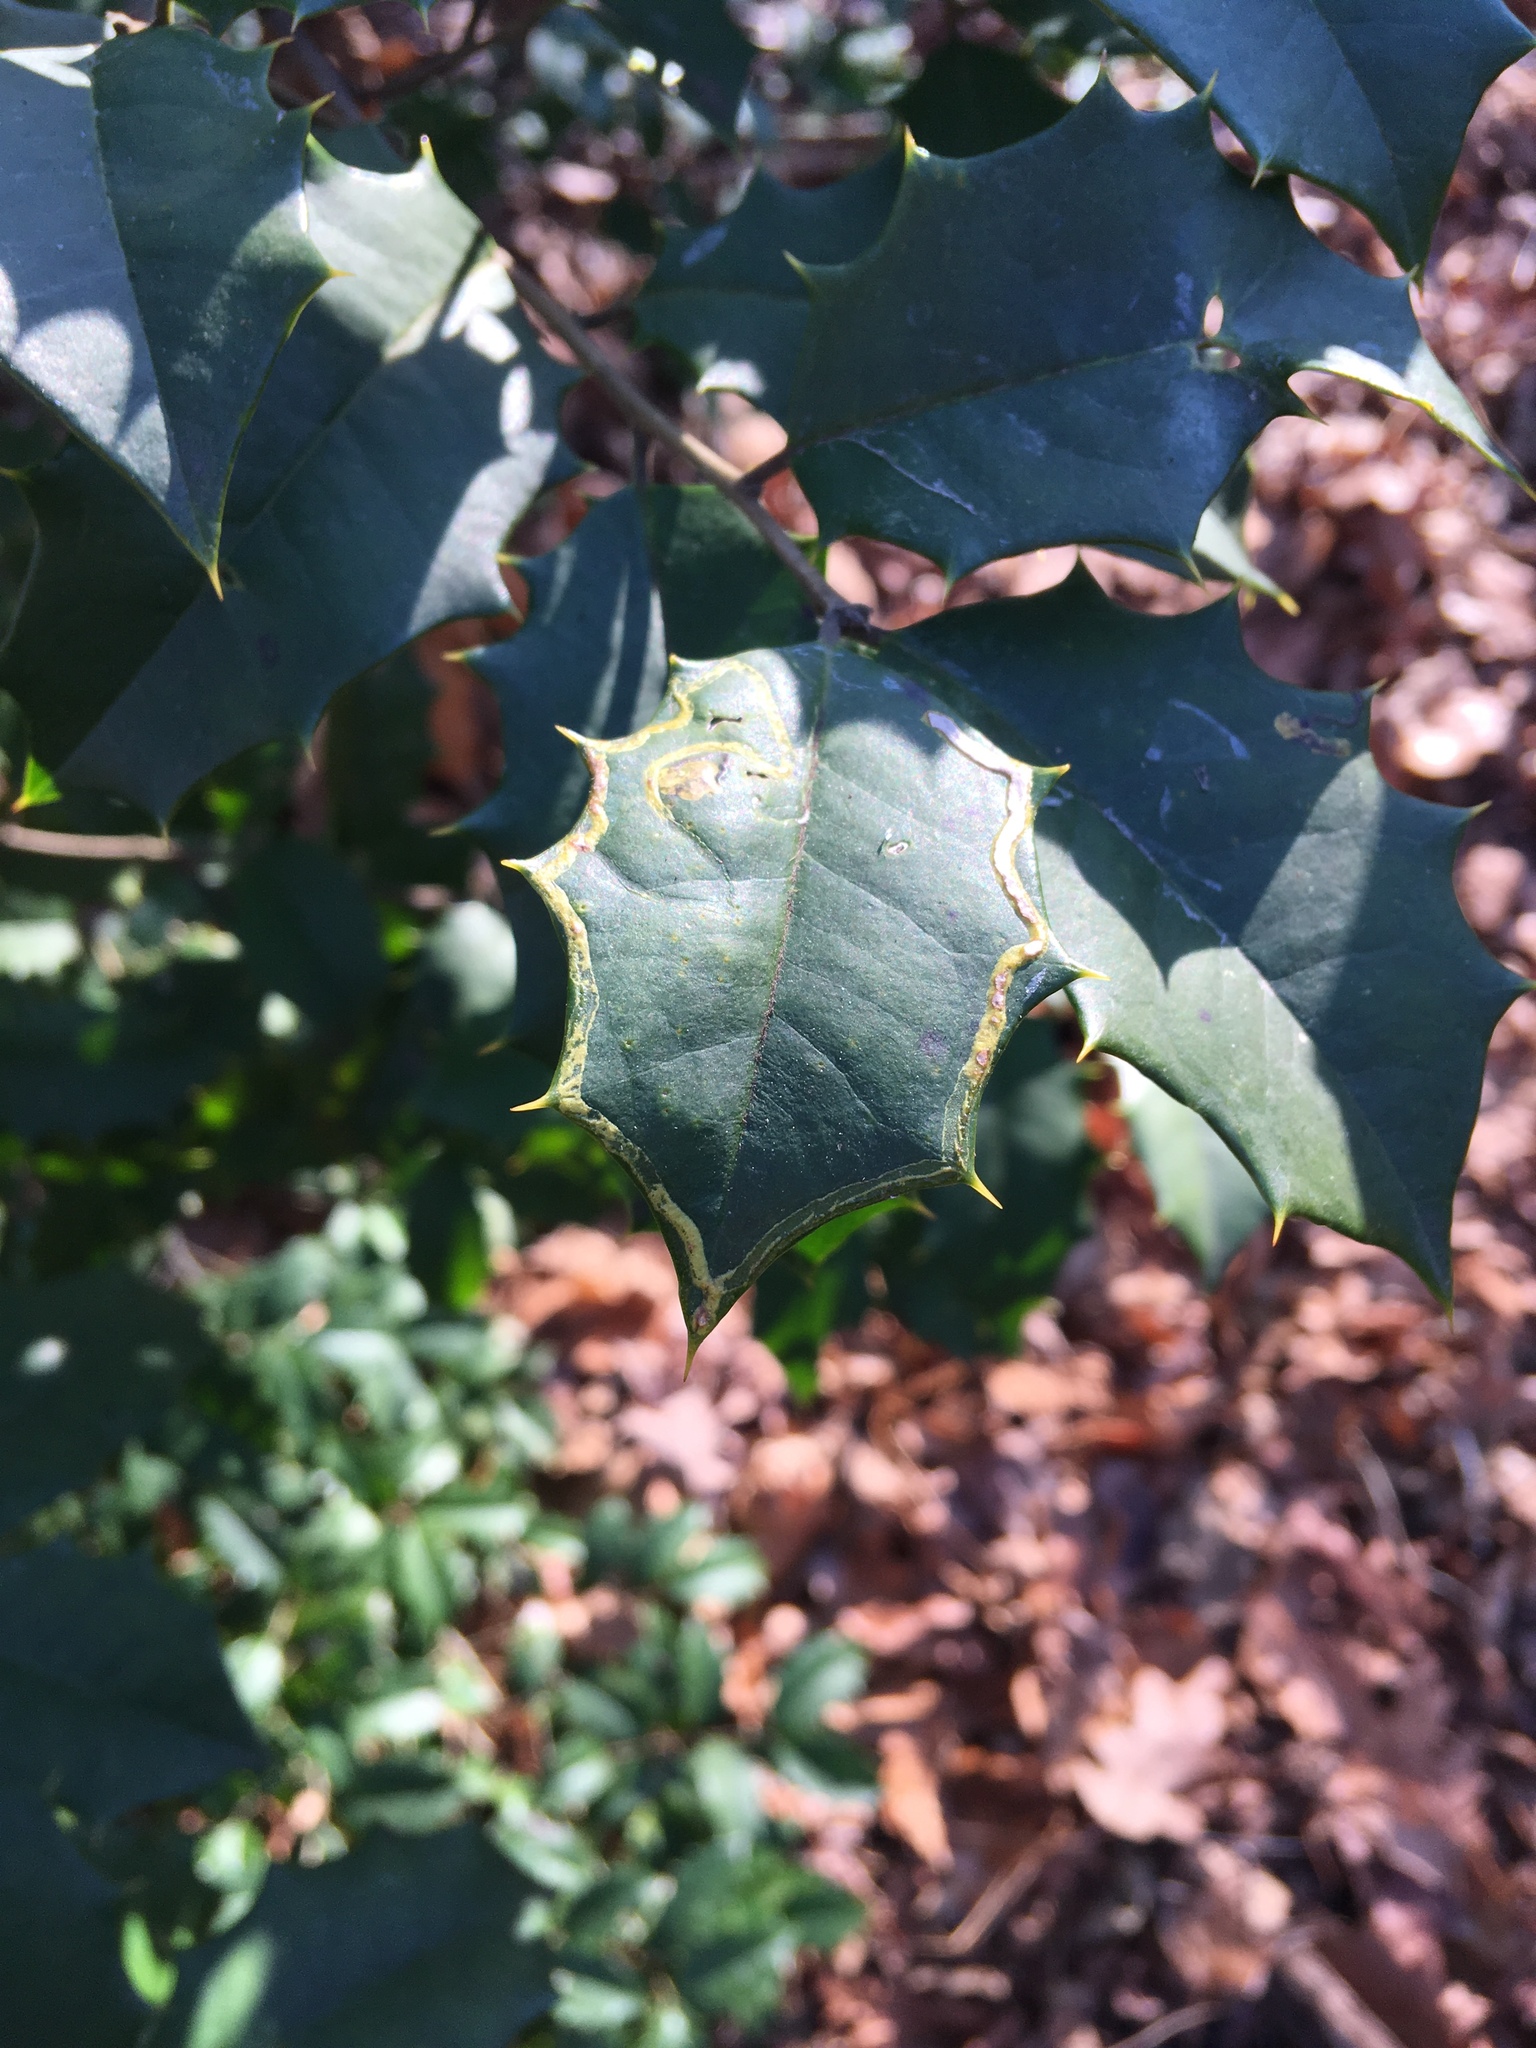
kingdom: Plantae
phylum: Tracheophyta
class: Magnoliopsida
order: Aquifoliales
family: Aquifoliaceae
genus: Ilex
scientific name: Ilex opaca
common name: American holly
